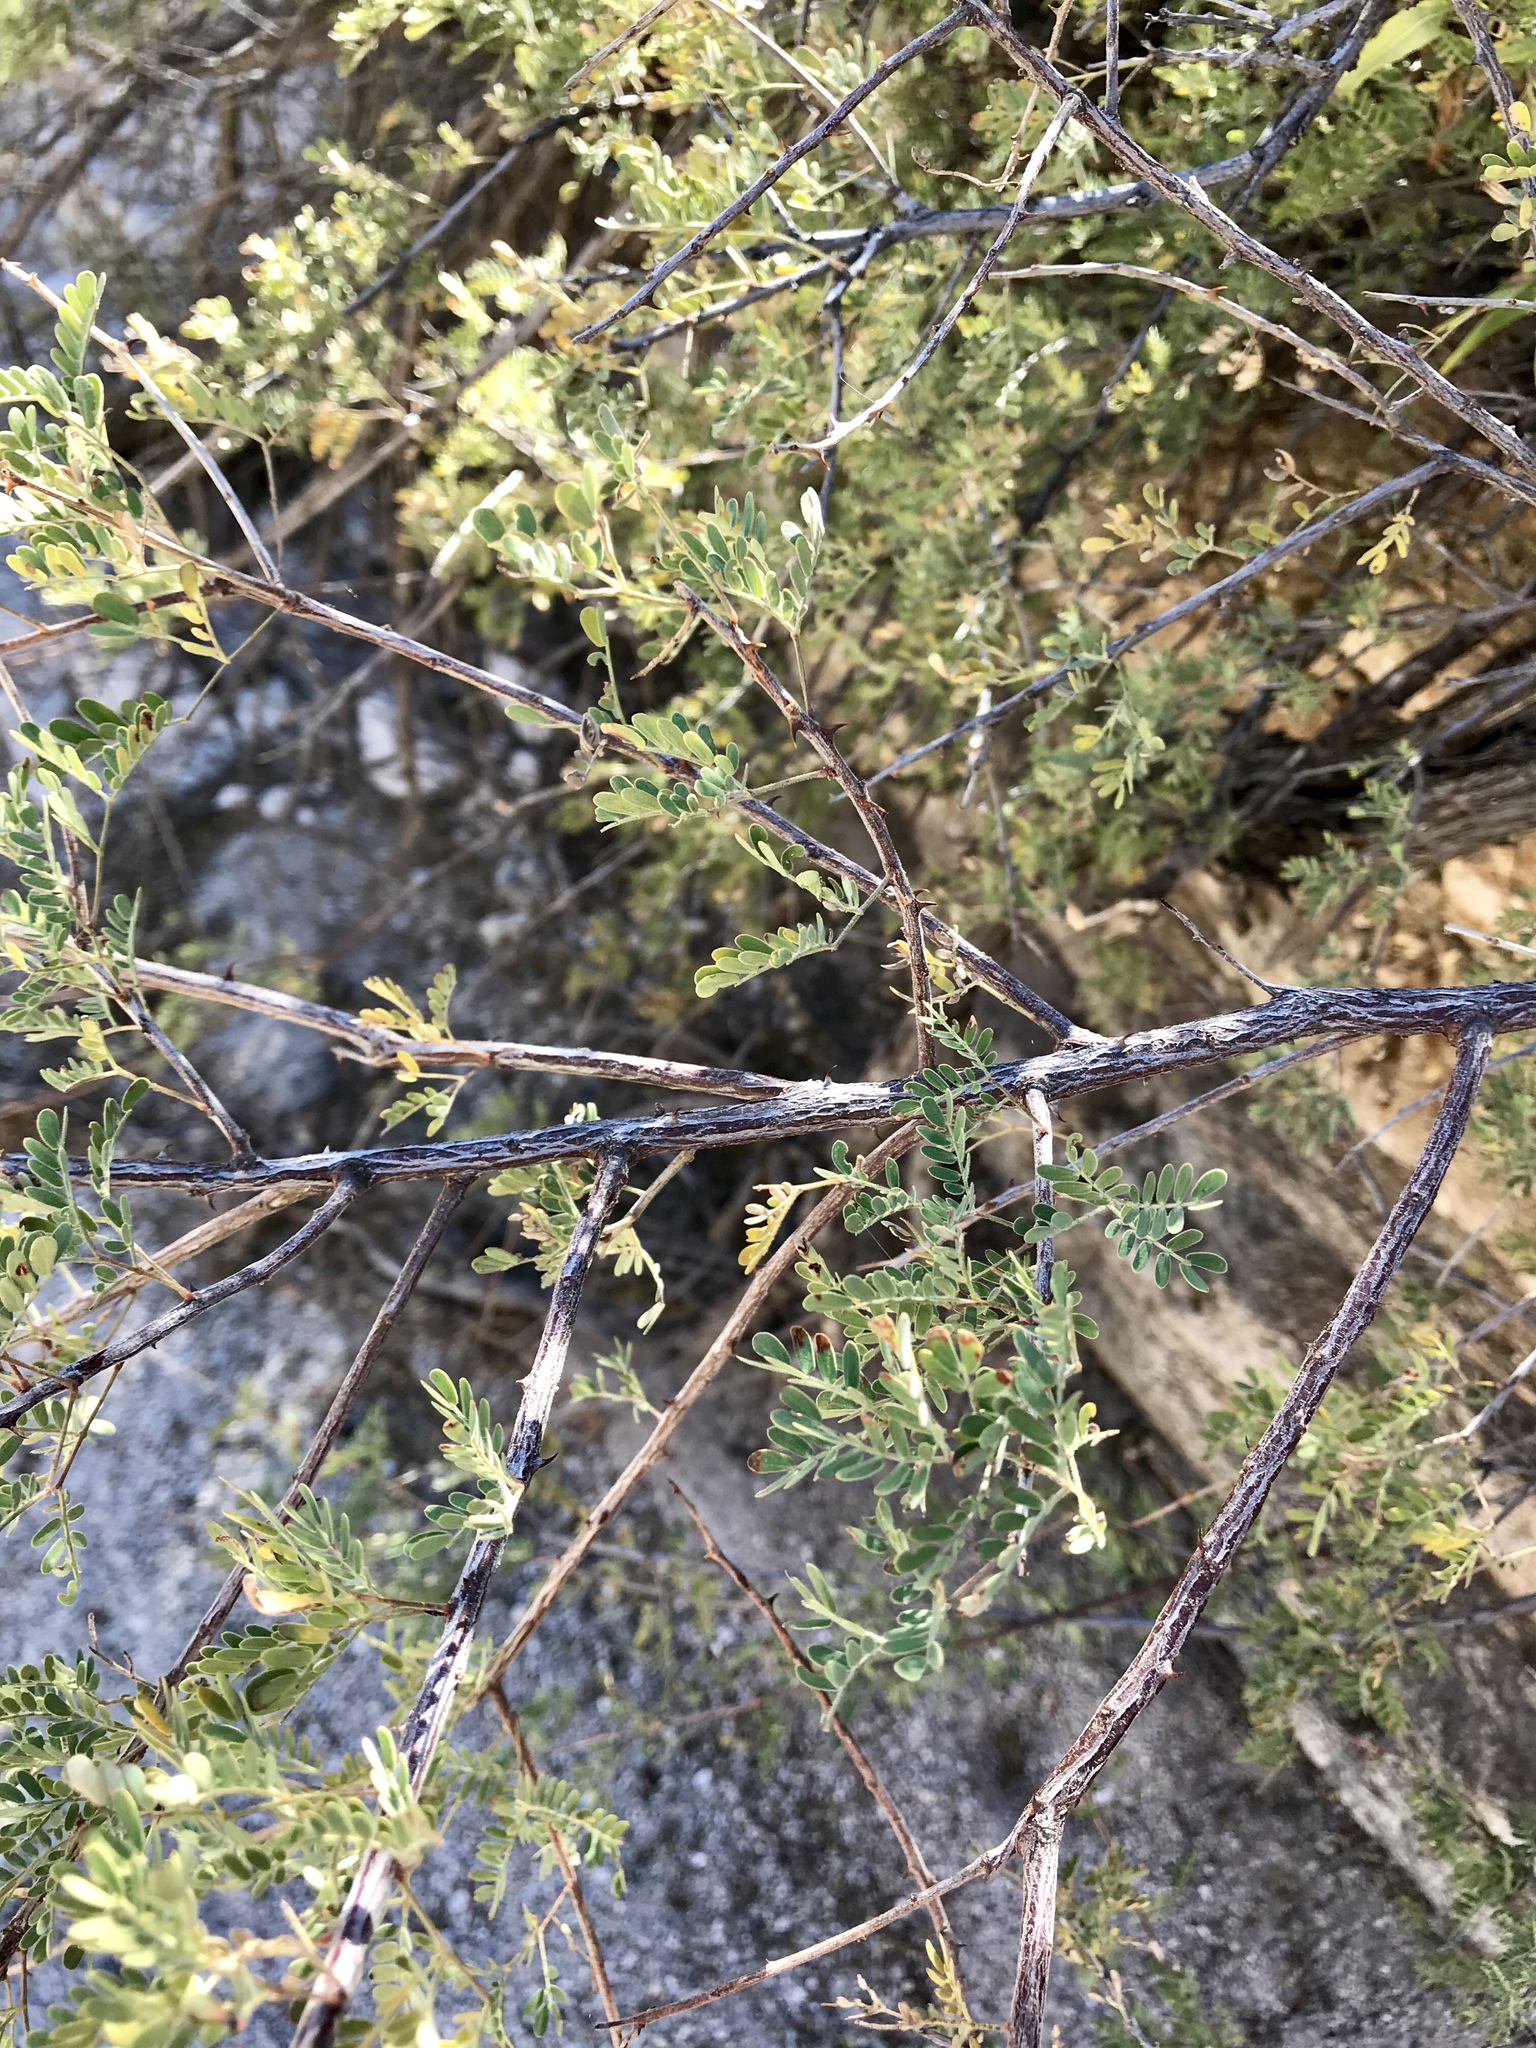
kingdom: Plantae
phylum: Tracheophyta
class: Magnoliopsida
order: Fabales
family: Fabaceae
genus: Senegalia
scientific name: Senegalia greggii
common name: Texas-mimosa
